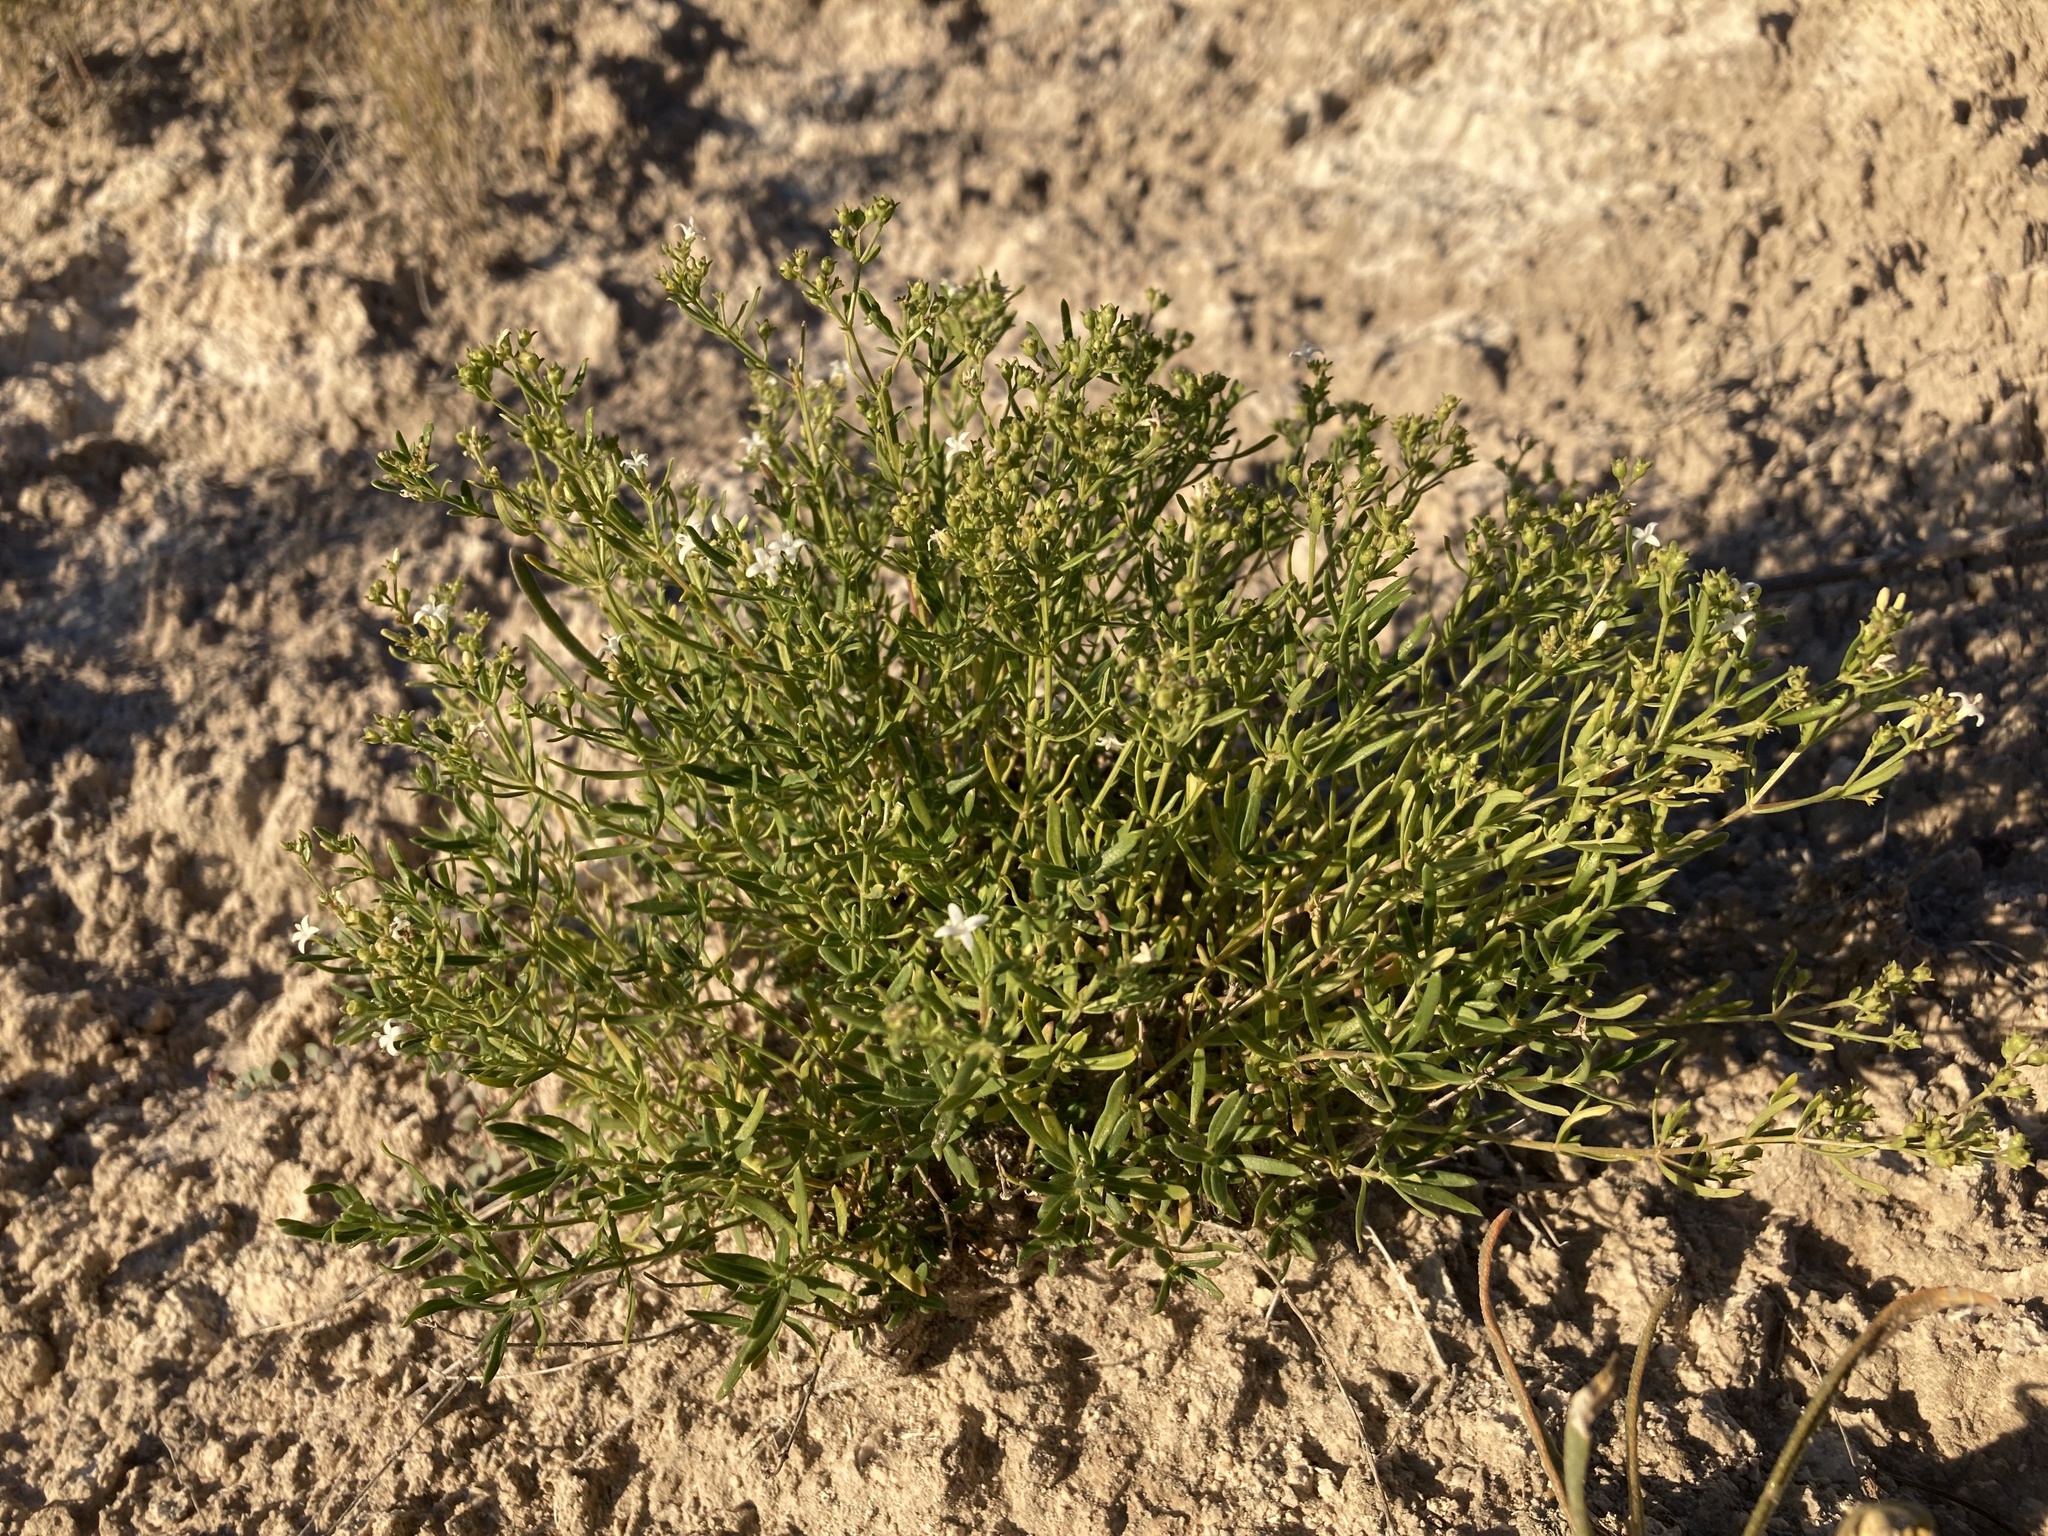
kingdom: Plantae
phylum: Tracheophyta
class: Magnoliopsida
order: Gentianales
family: Rubiaceae
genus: Stenaria
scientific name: Stenaria nigricans
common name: Diamondflowers
